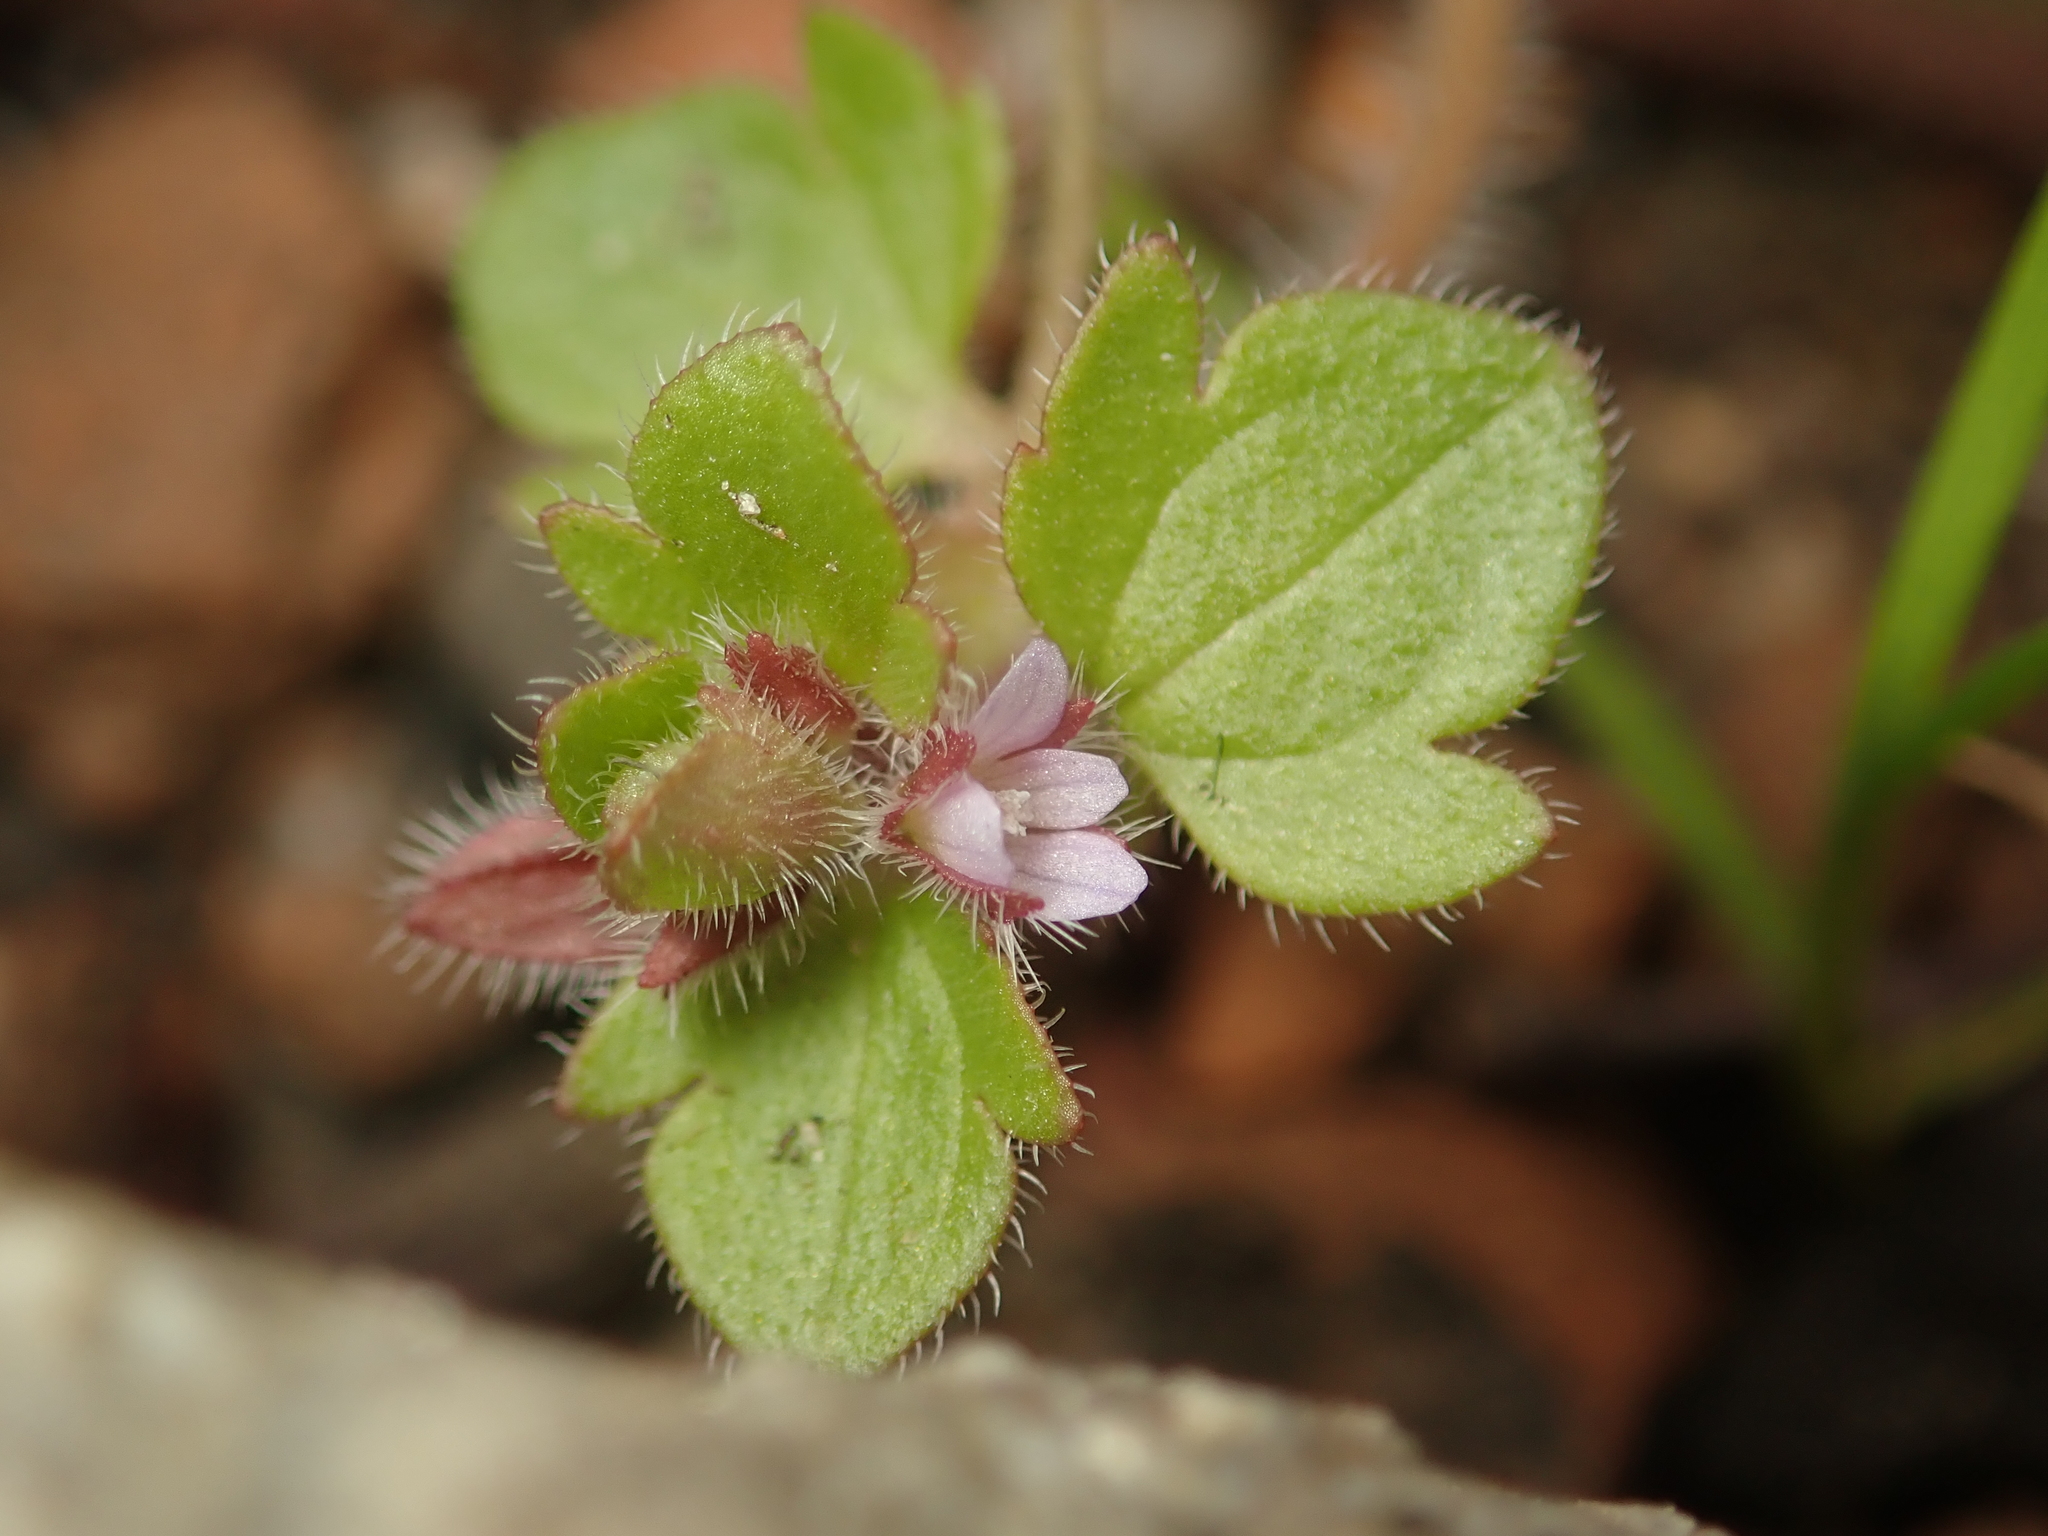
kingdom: Plantae
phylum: Tracheophyta
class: Magnoliopsida
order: Lamiales
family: Plantaginaceae
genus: Veronica
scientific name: Veronica sublobata
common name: False ivy-leaved speedwell
